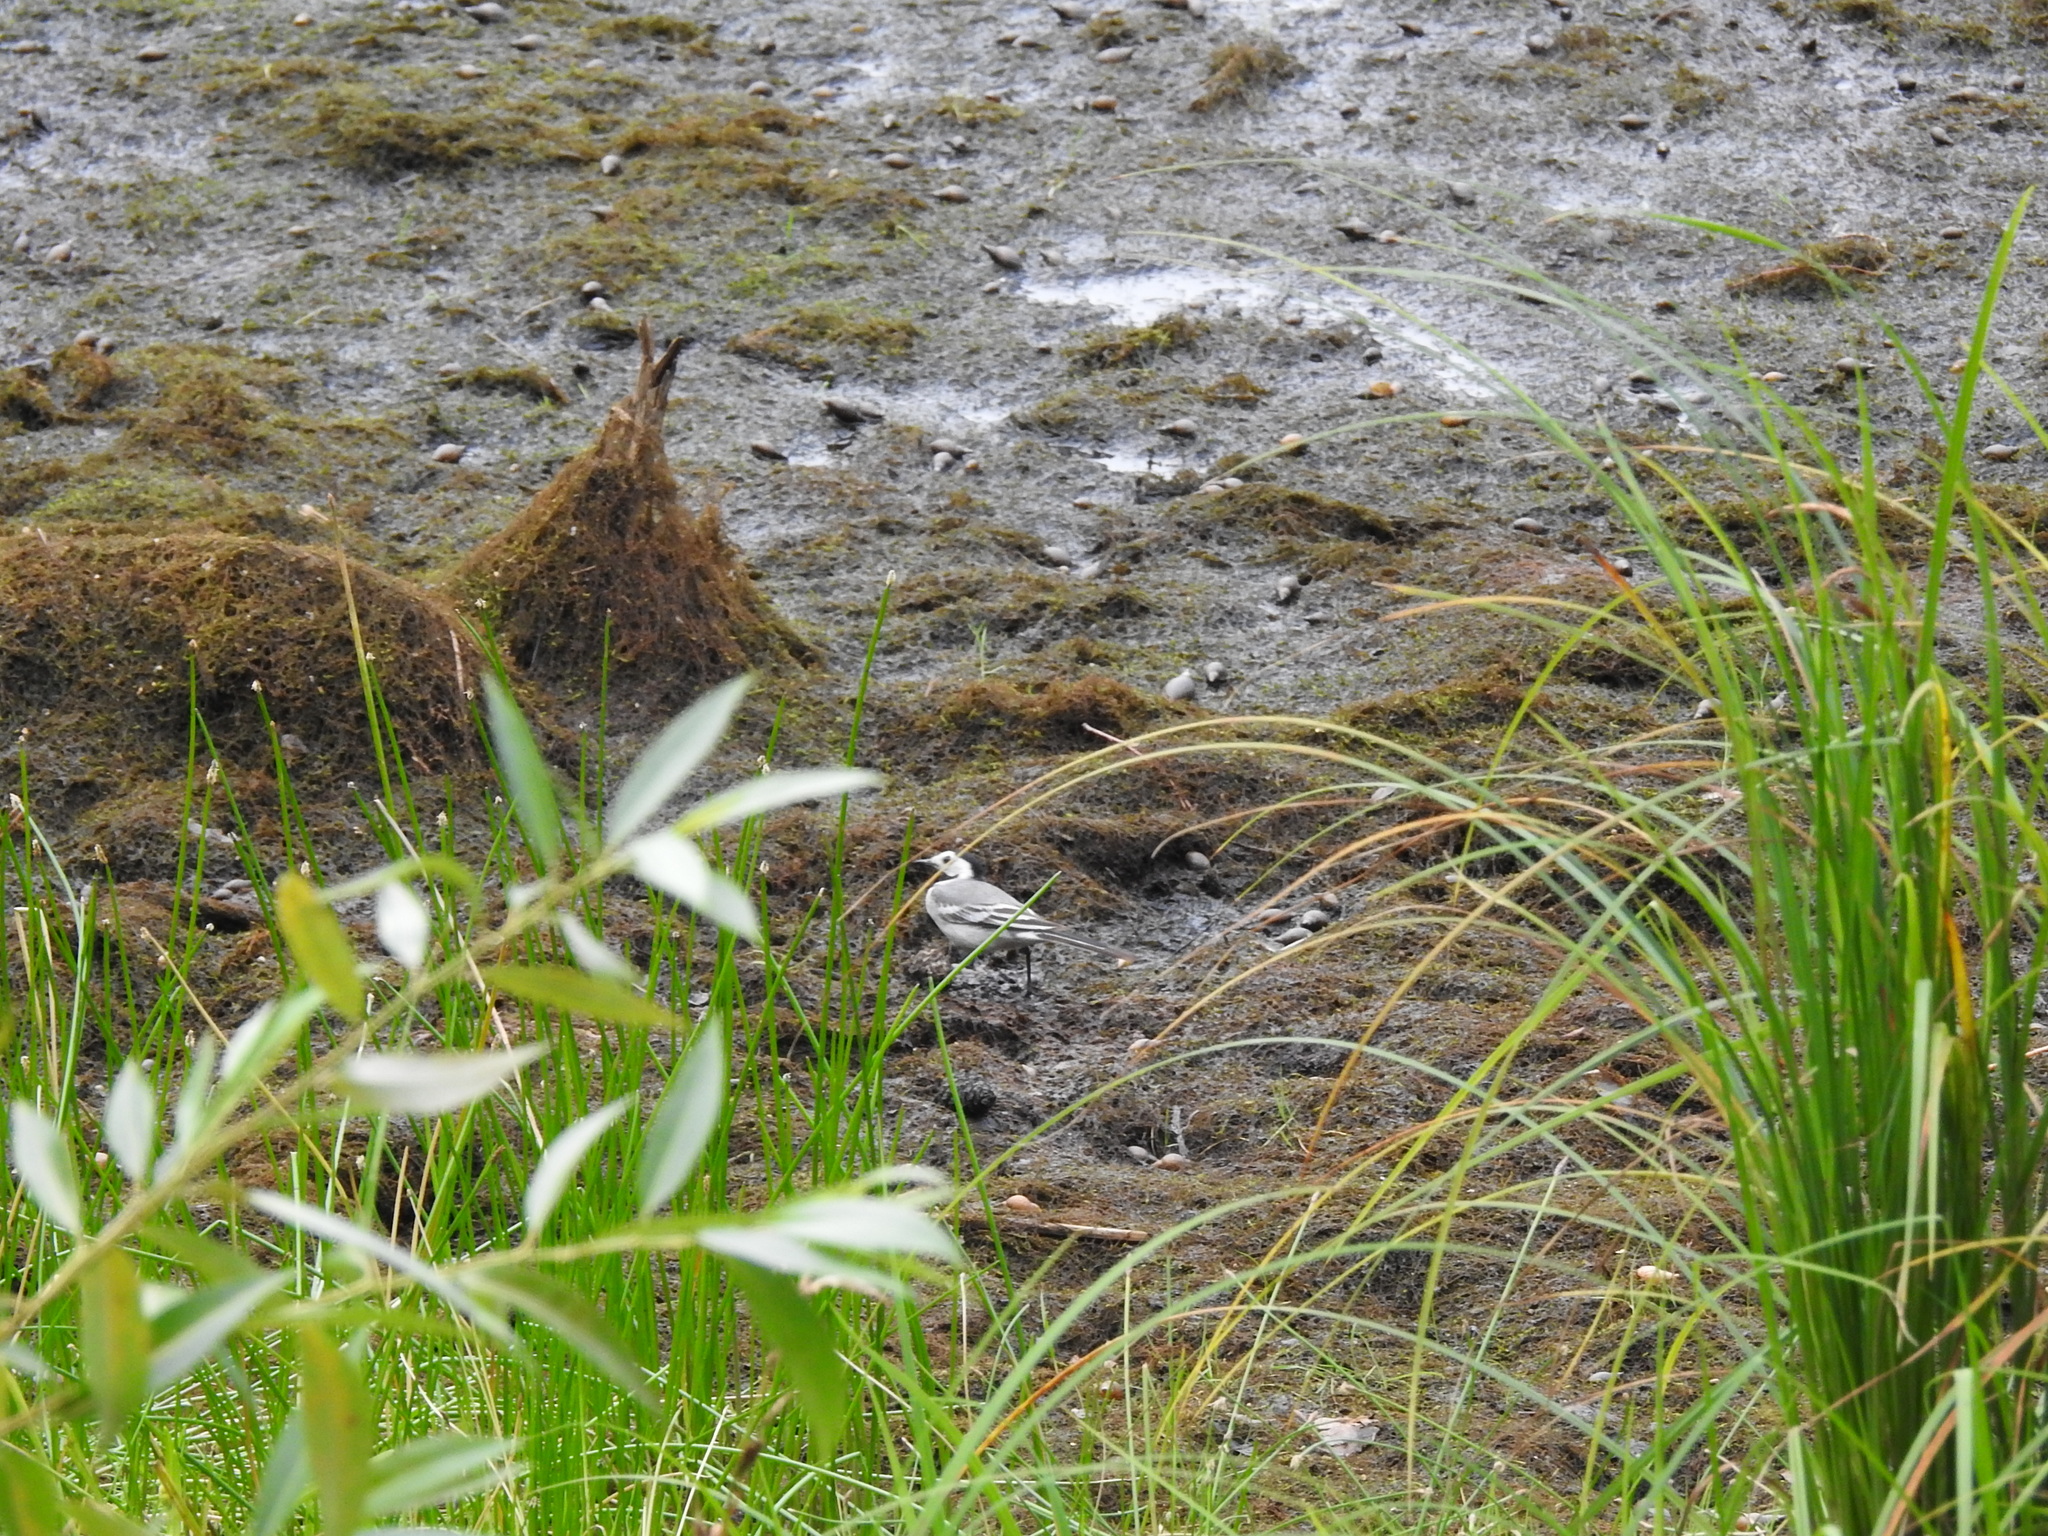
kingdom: Animalia
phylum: Chordata
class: Aves
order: Passeriformes
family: Motacillidae
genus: Motacilla
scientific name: Motacilla alba
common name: White wagtail
